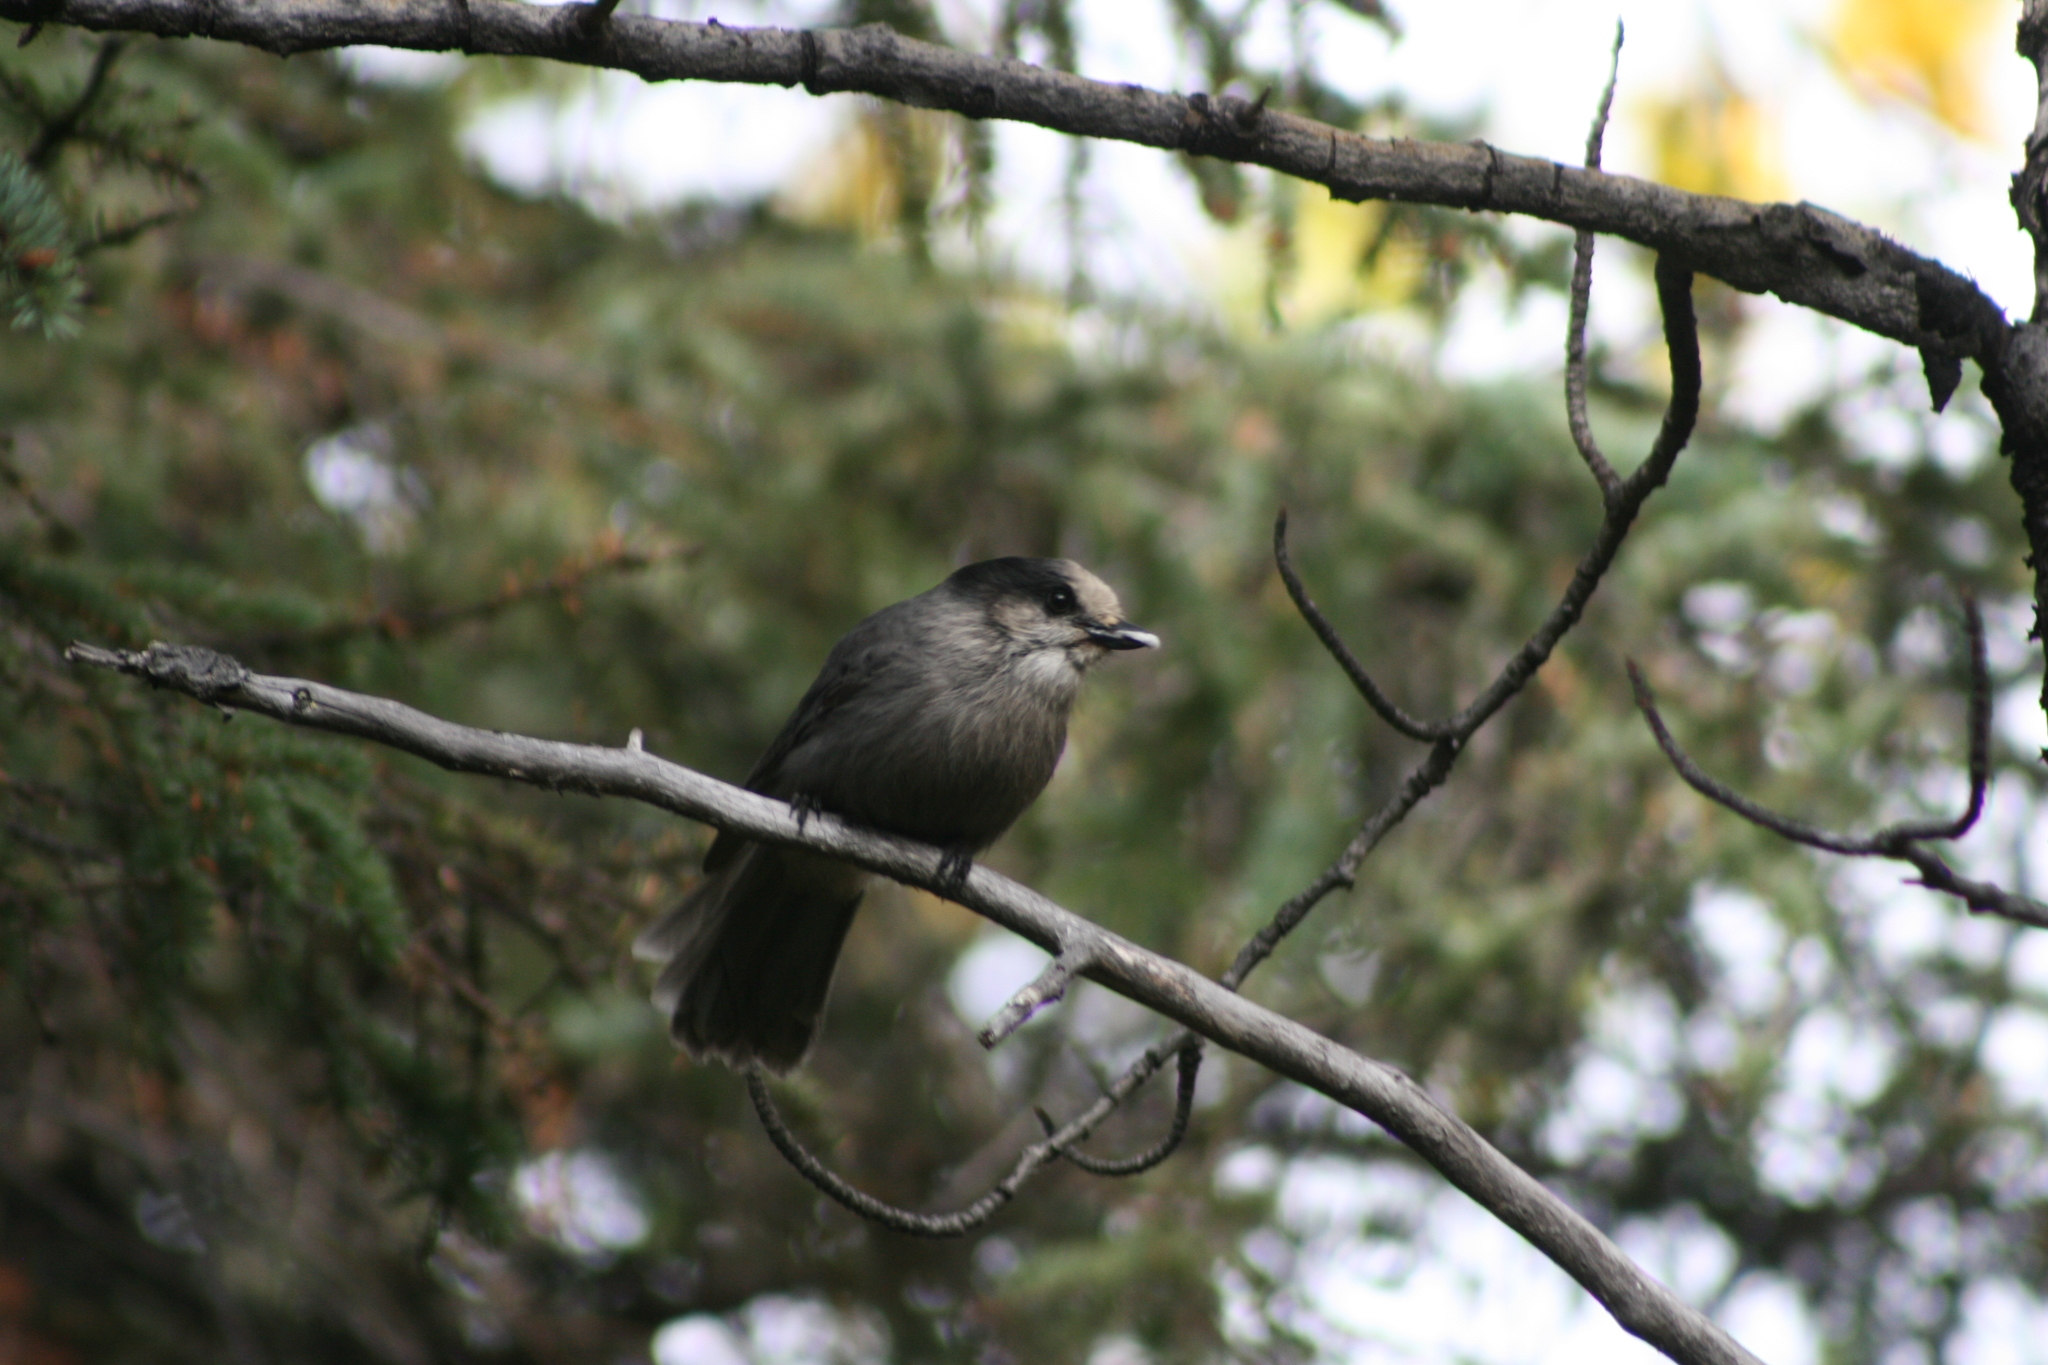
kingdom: Animalia
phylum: Chordata
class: Aves
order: Passeriformes
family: Corvidae
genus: Perisoreus
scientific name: Perisoreus canadensis
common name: Gray jay
